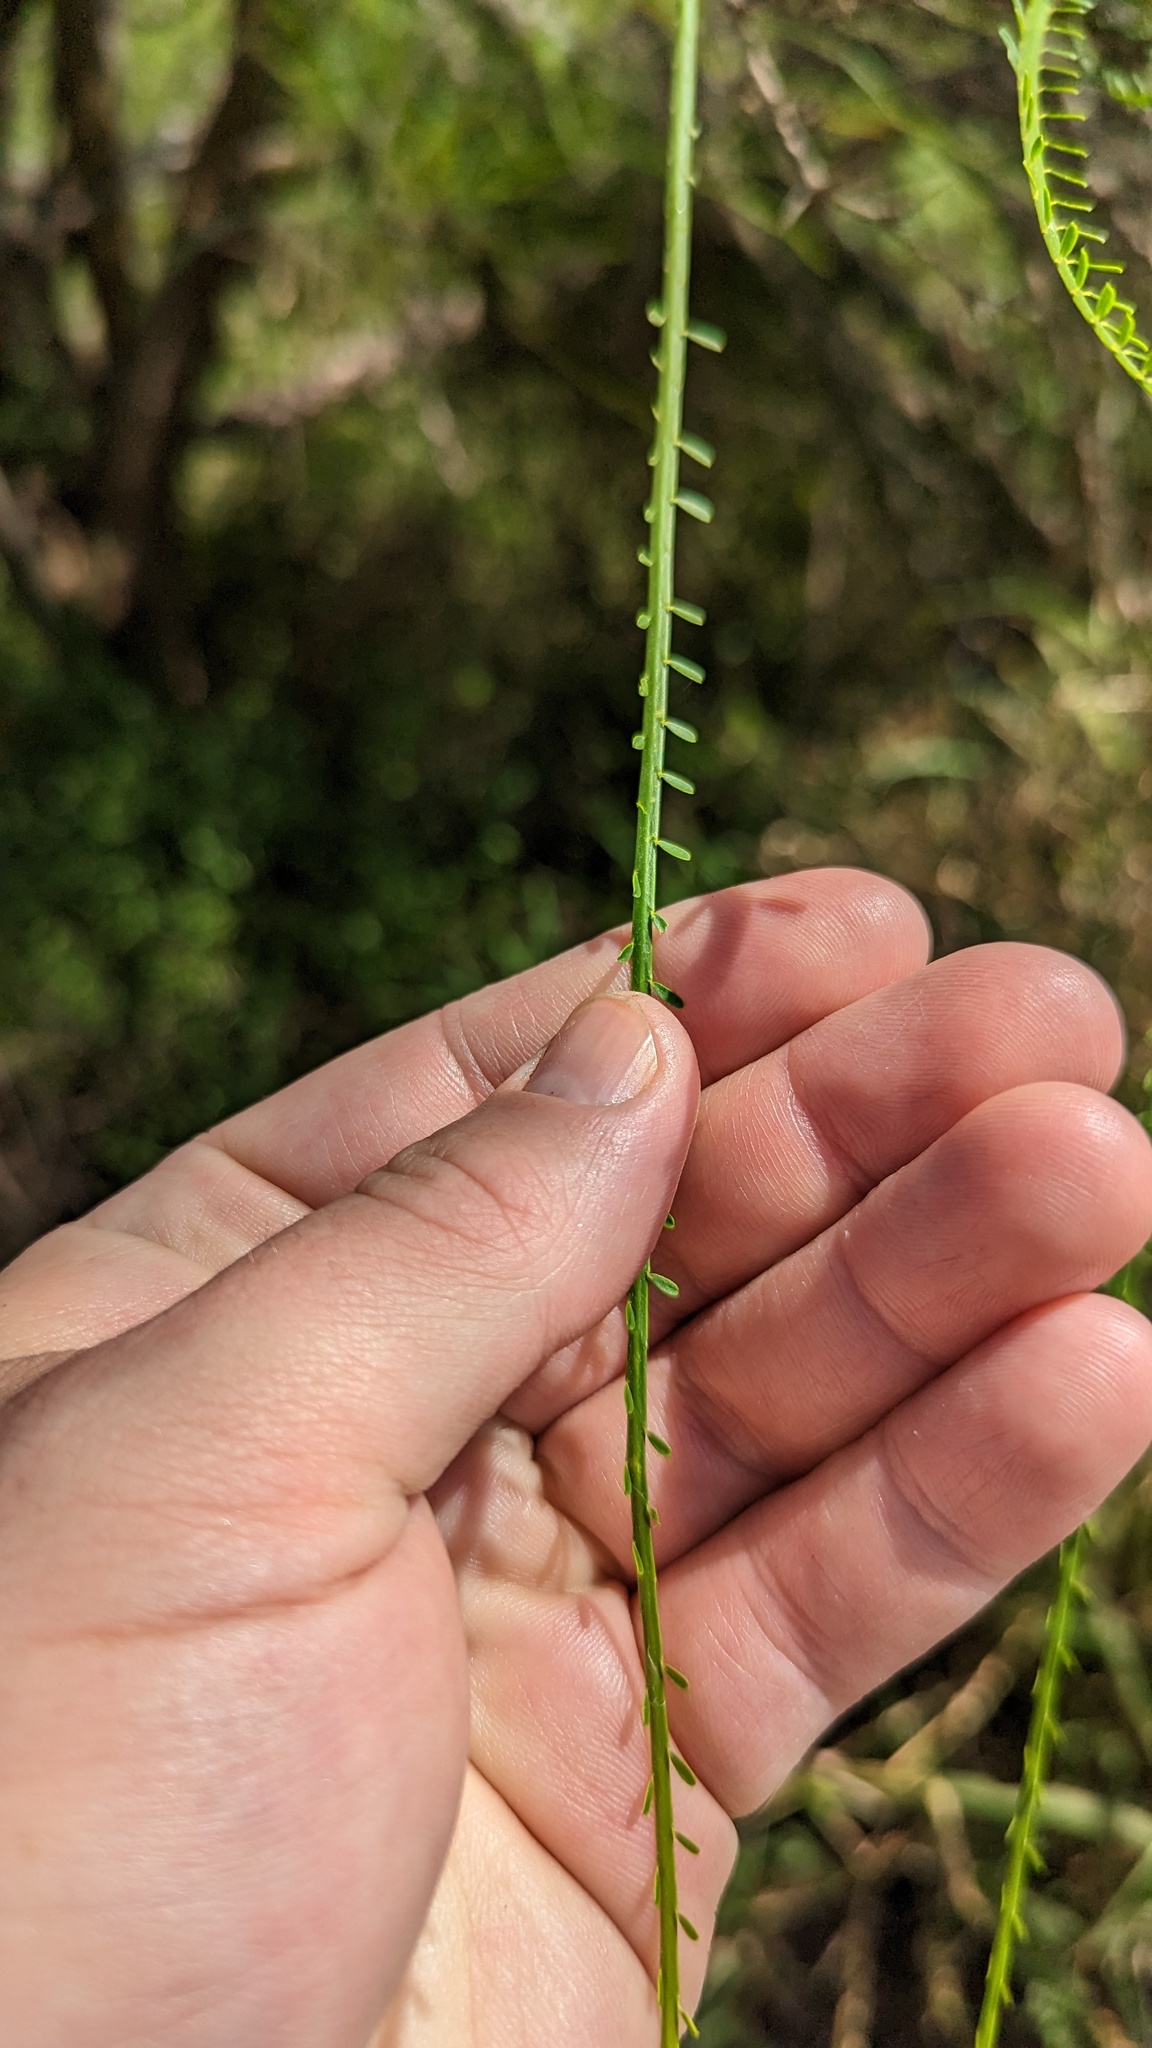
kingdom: Plantae
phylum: Tracheophyta
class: Magnoliopsida
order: Fabales
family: Fabaceae
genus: Parkinsonia
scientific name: Parkinsonia aculeata
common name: Jerusalem thorn
